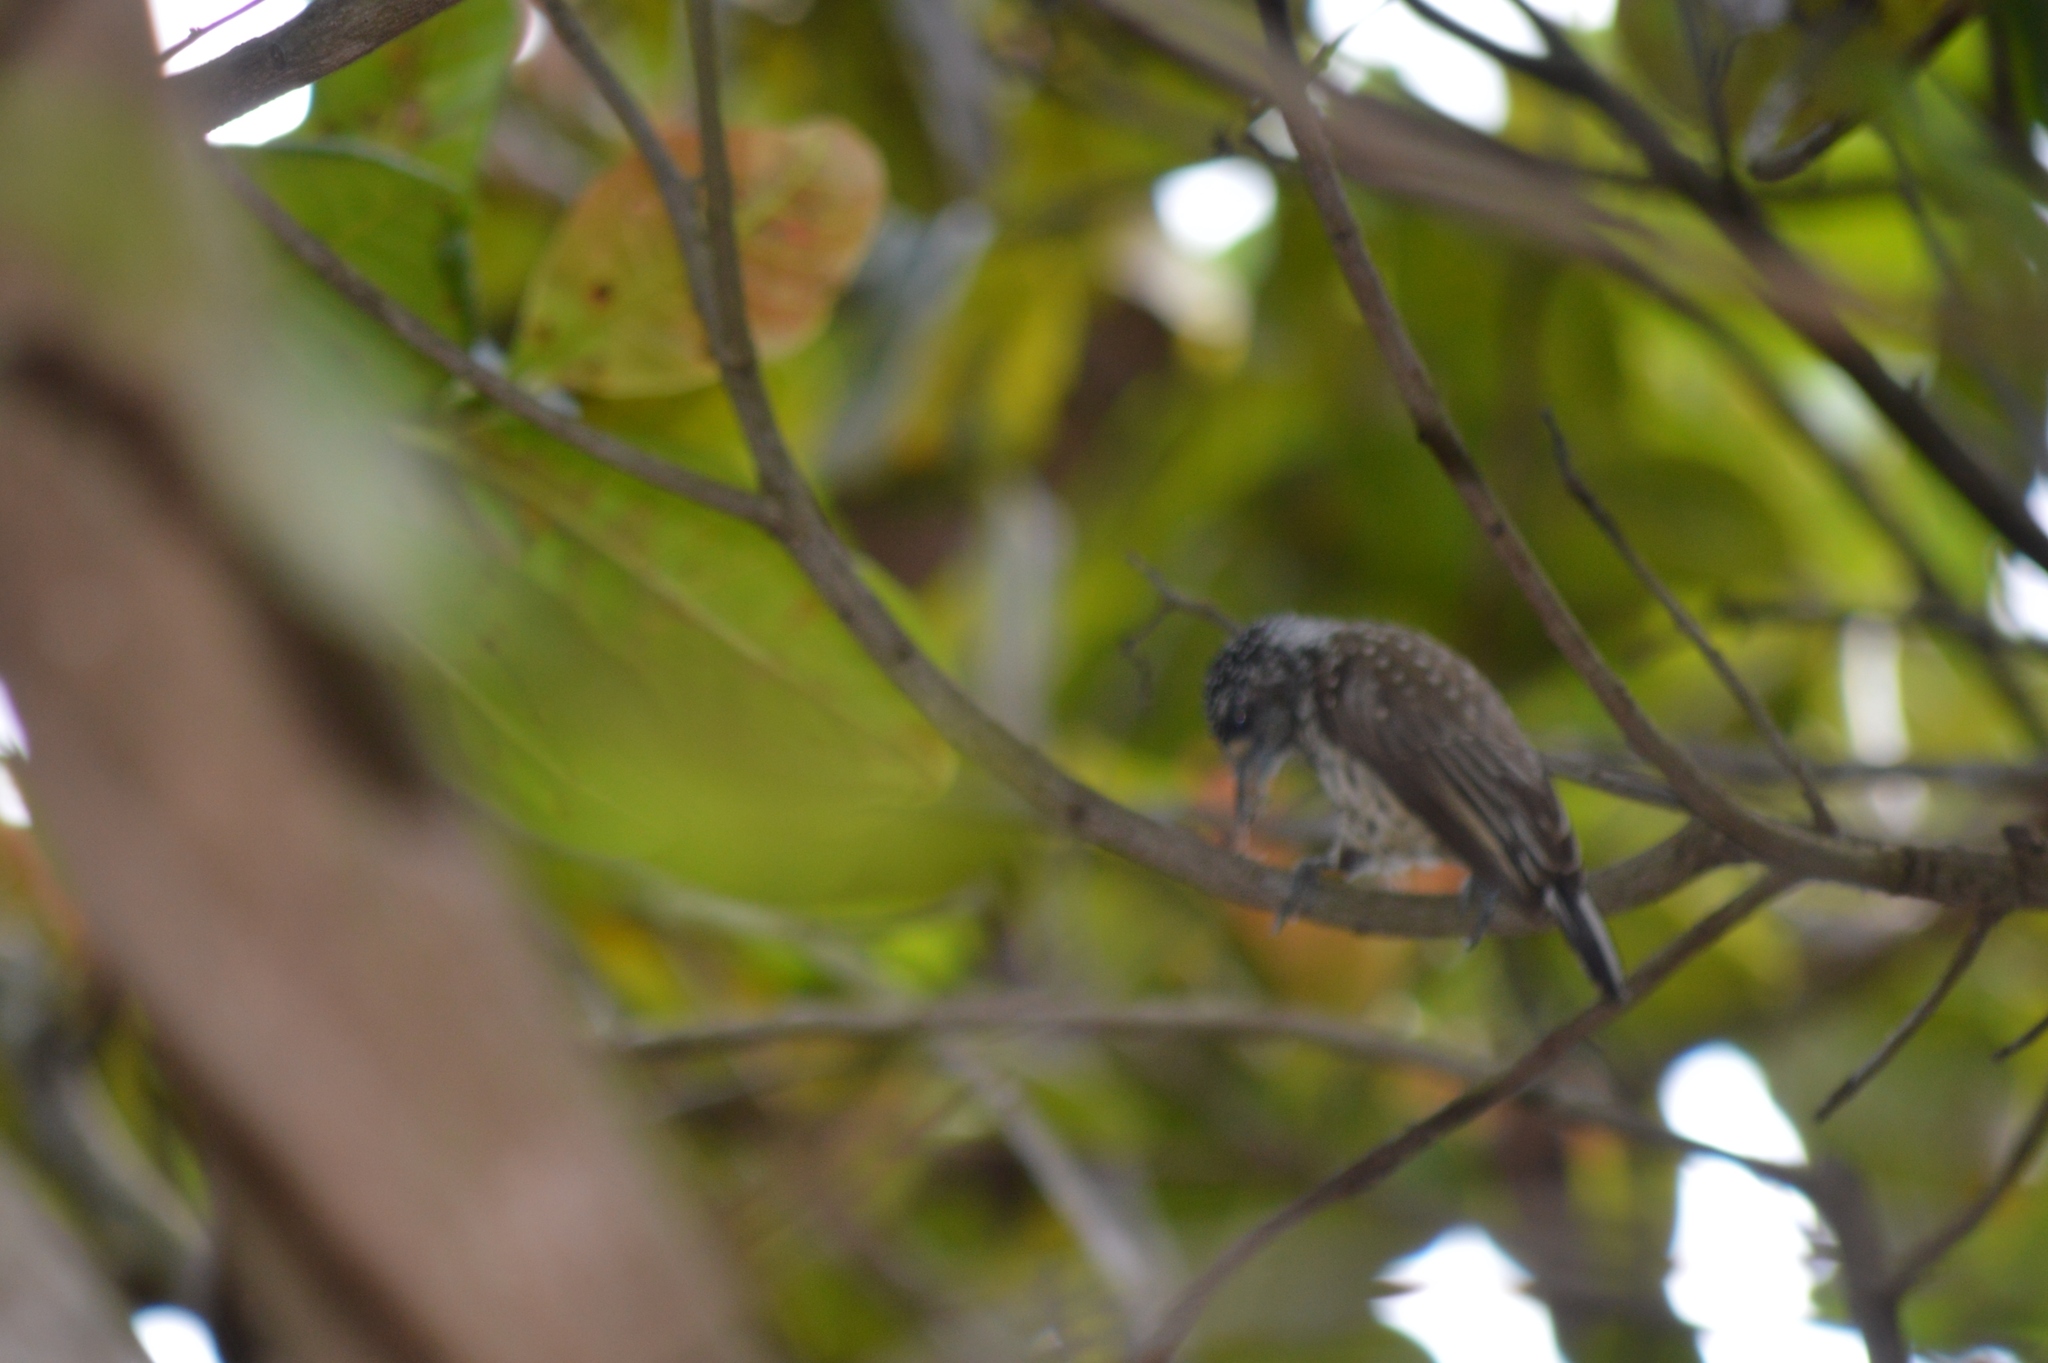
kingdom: Animalia
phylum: Chordata
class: Aves
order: Piciformes
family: Picidae
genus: Picumnus
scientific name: Picumnus albosquamatus
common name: White-wedged piculet
